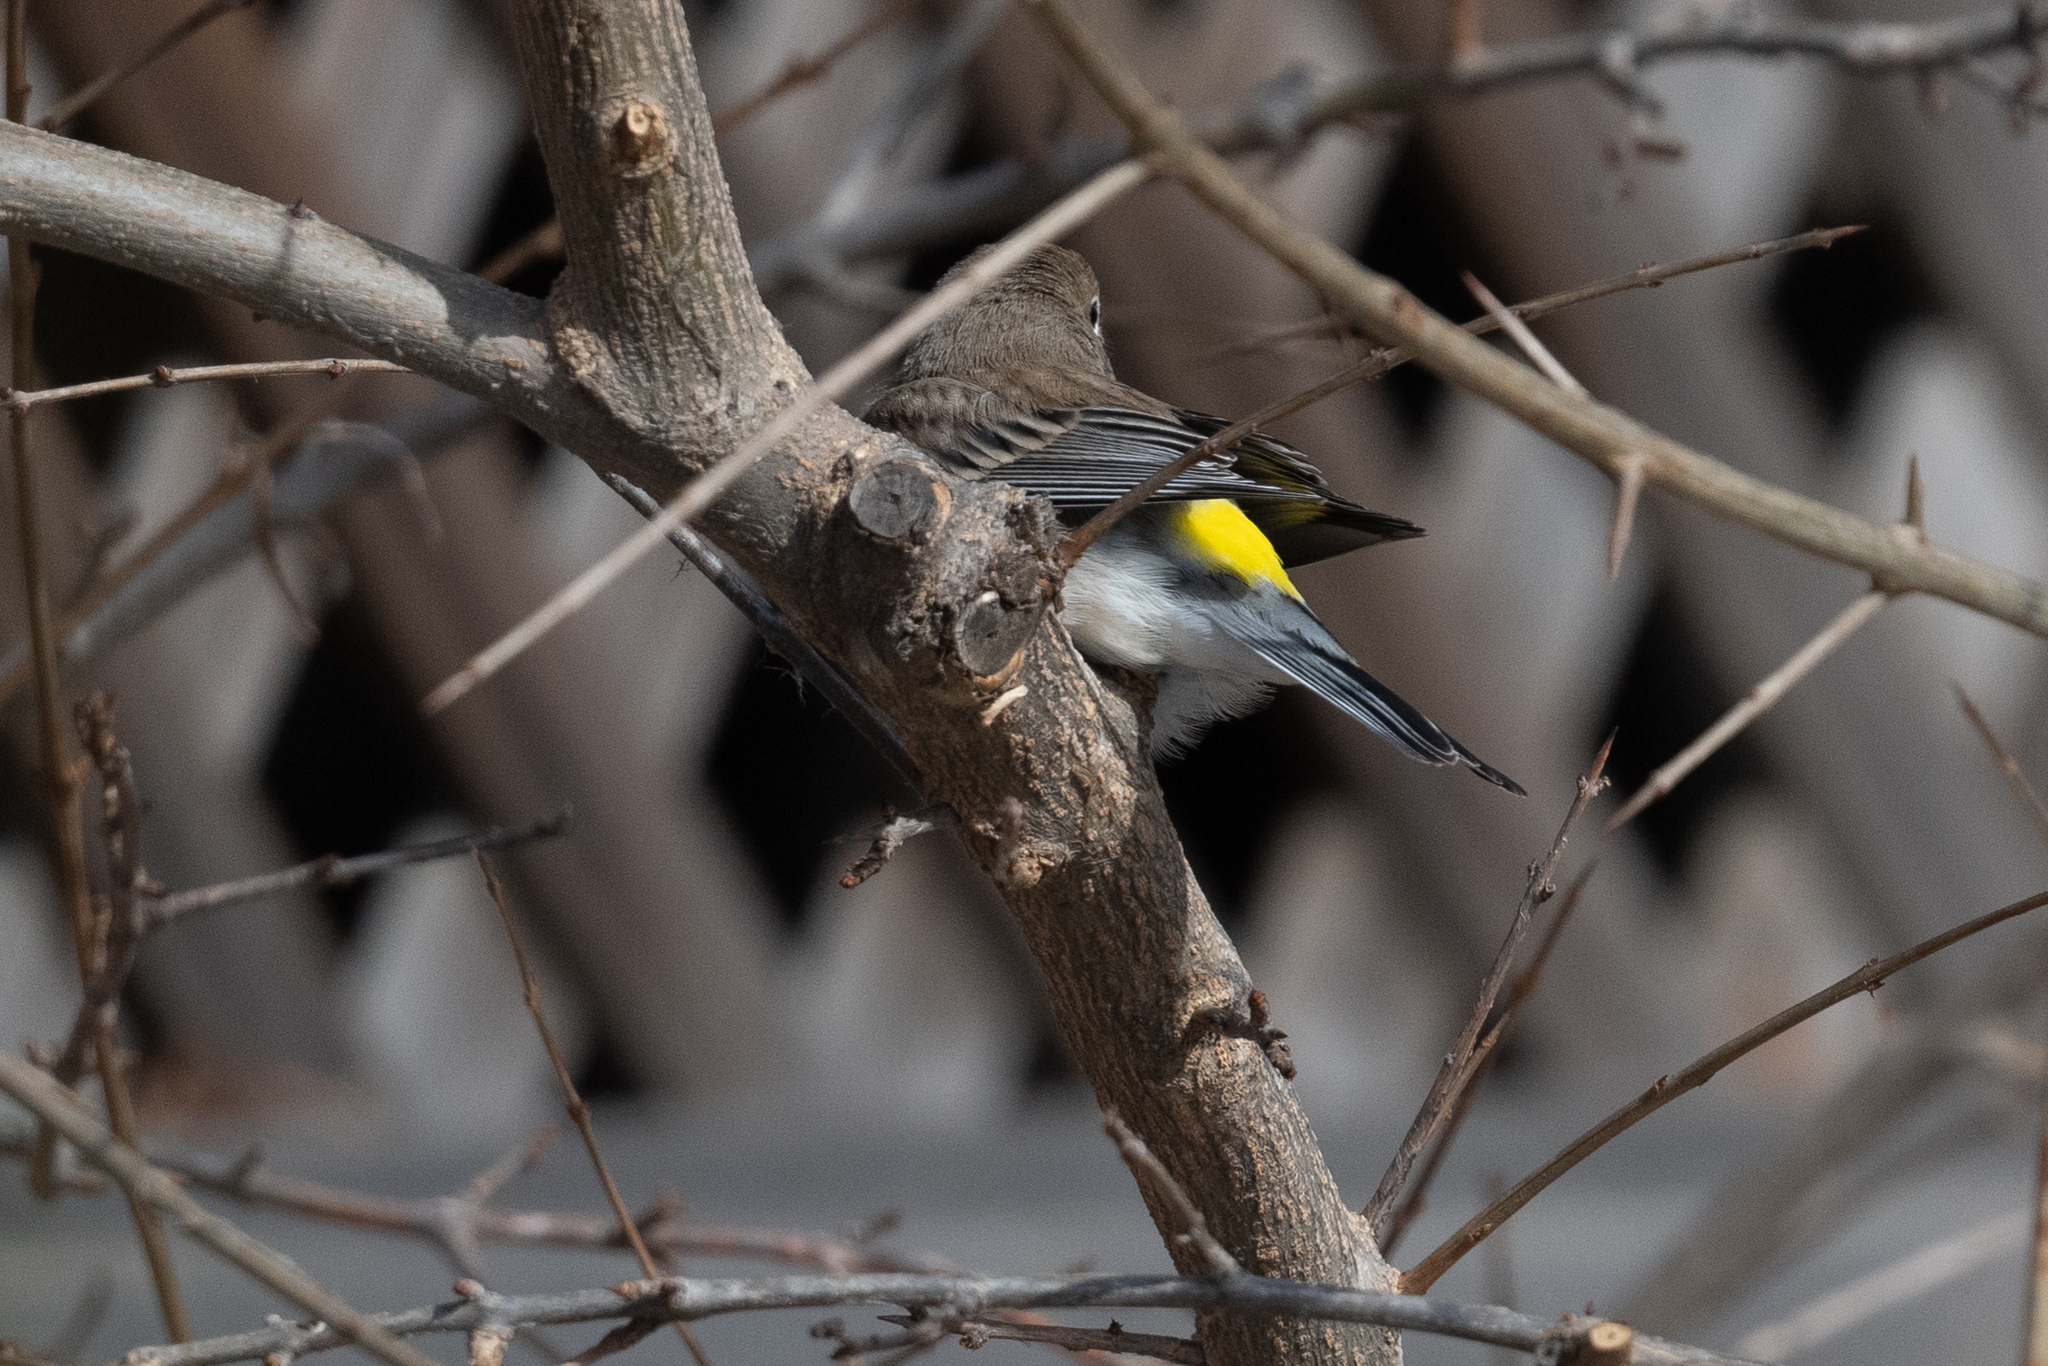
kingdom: Animalia
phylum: Chordata
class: Aves
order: Passeriformes
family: Parulidae
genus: Setophaga
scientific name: Setophaga coronata
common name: Myrtle warbler
